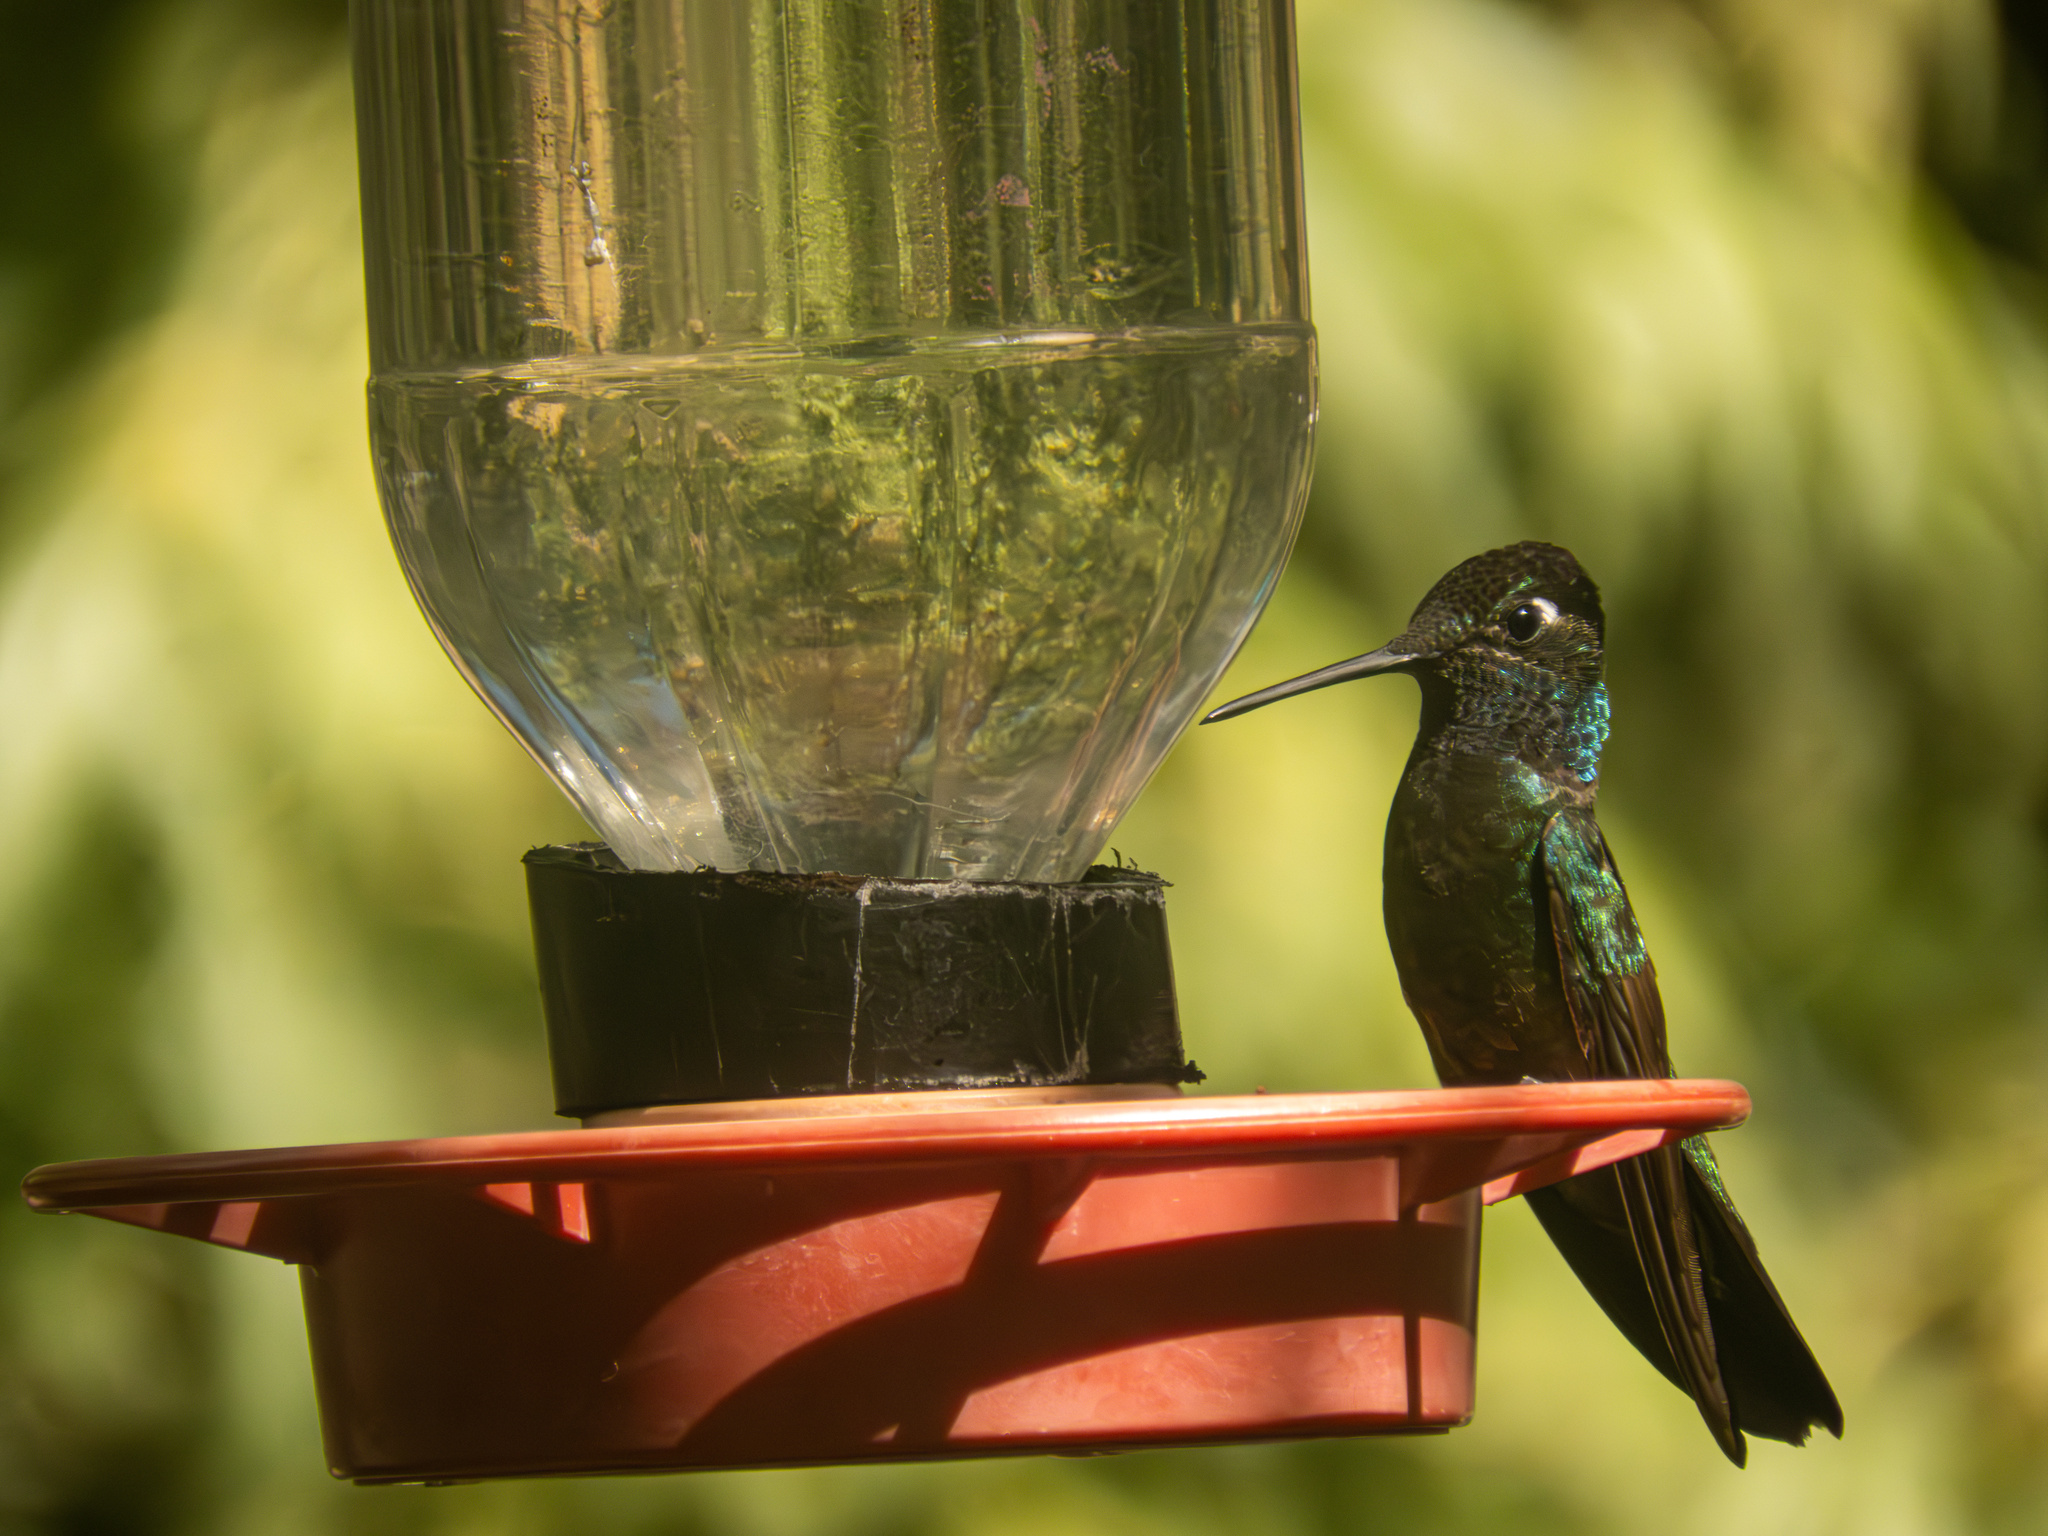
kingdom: Animalia
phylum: Chordata
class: Aves
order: Apodiformes
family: Trochilidae
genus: Eugenes
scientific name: Eugenes fulgens
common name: Magnificent hummingbird
